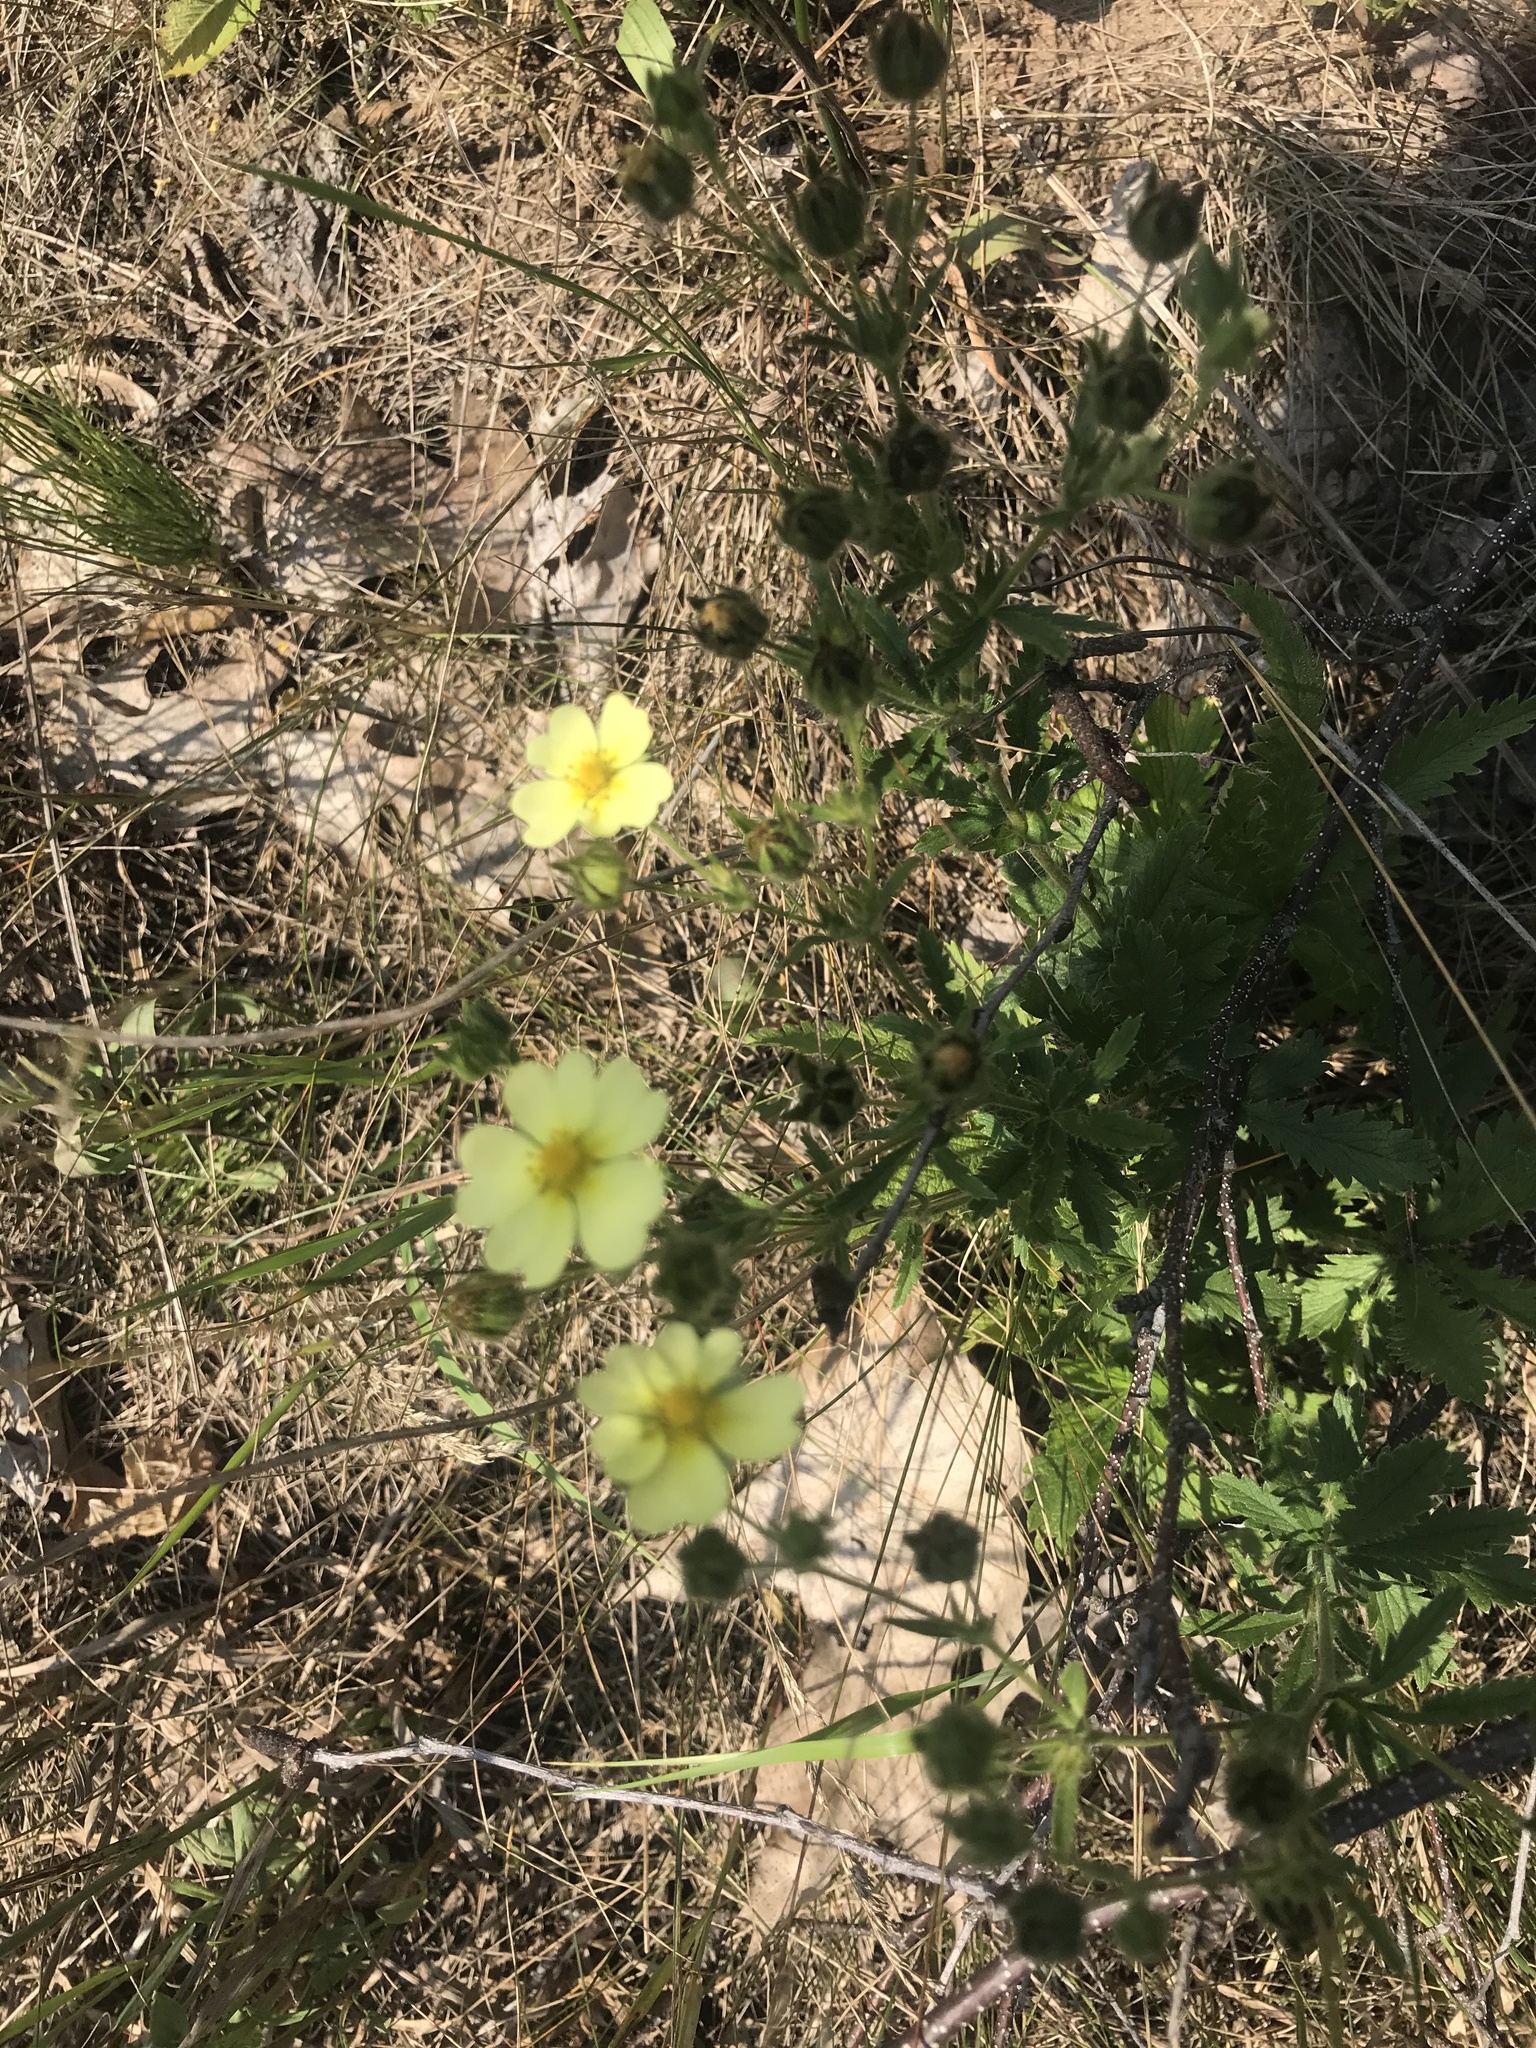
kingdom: Plantae
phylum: Tracheophyta
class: Magnoliopsida
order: Rosales
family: Rosaceae
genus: Potentilla
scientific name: Potentilla recta
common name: Sulphur cinquefoil
